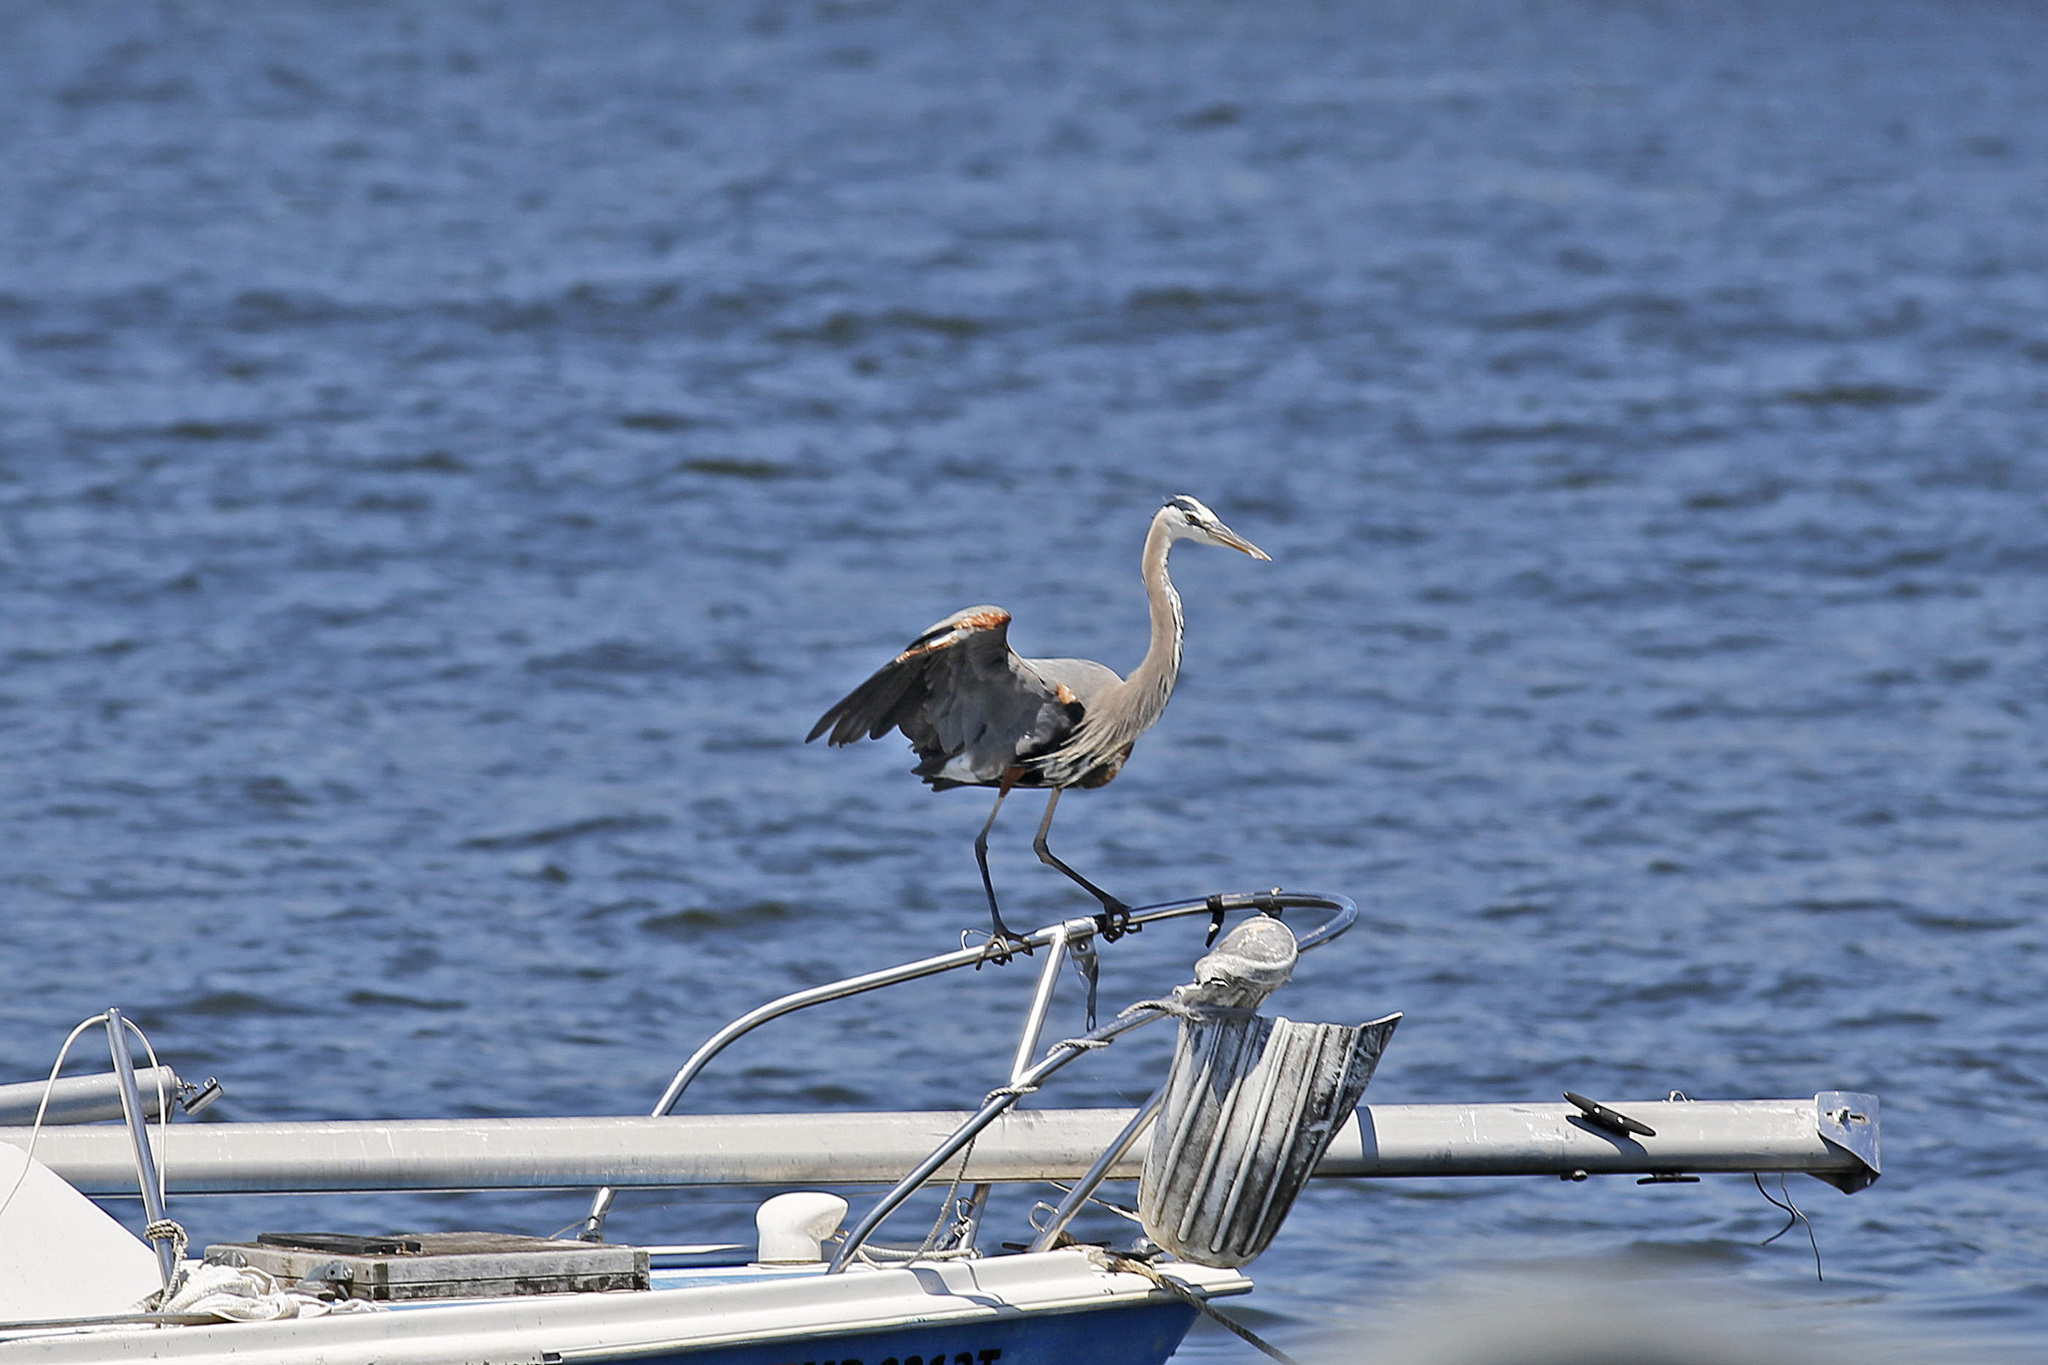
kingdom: Animalia
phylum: Chordata
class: Aves
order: Pelecaniformes
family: Ardeidae
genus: Ardea
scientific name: Ardea herodias
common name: Great blue heron
